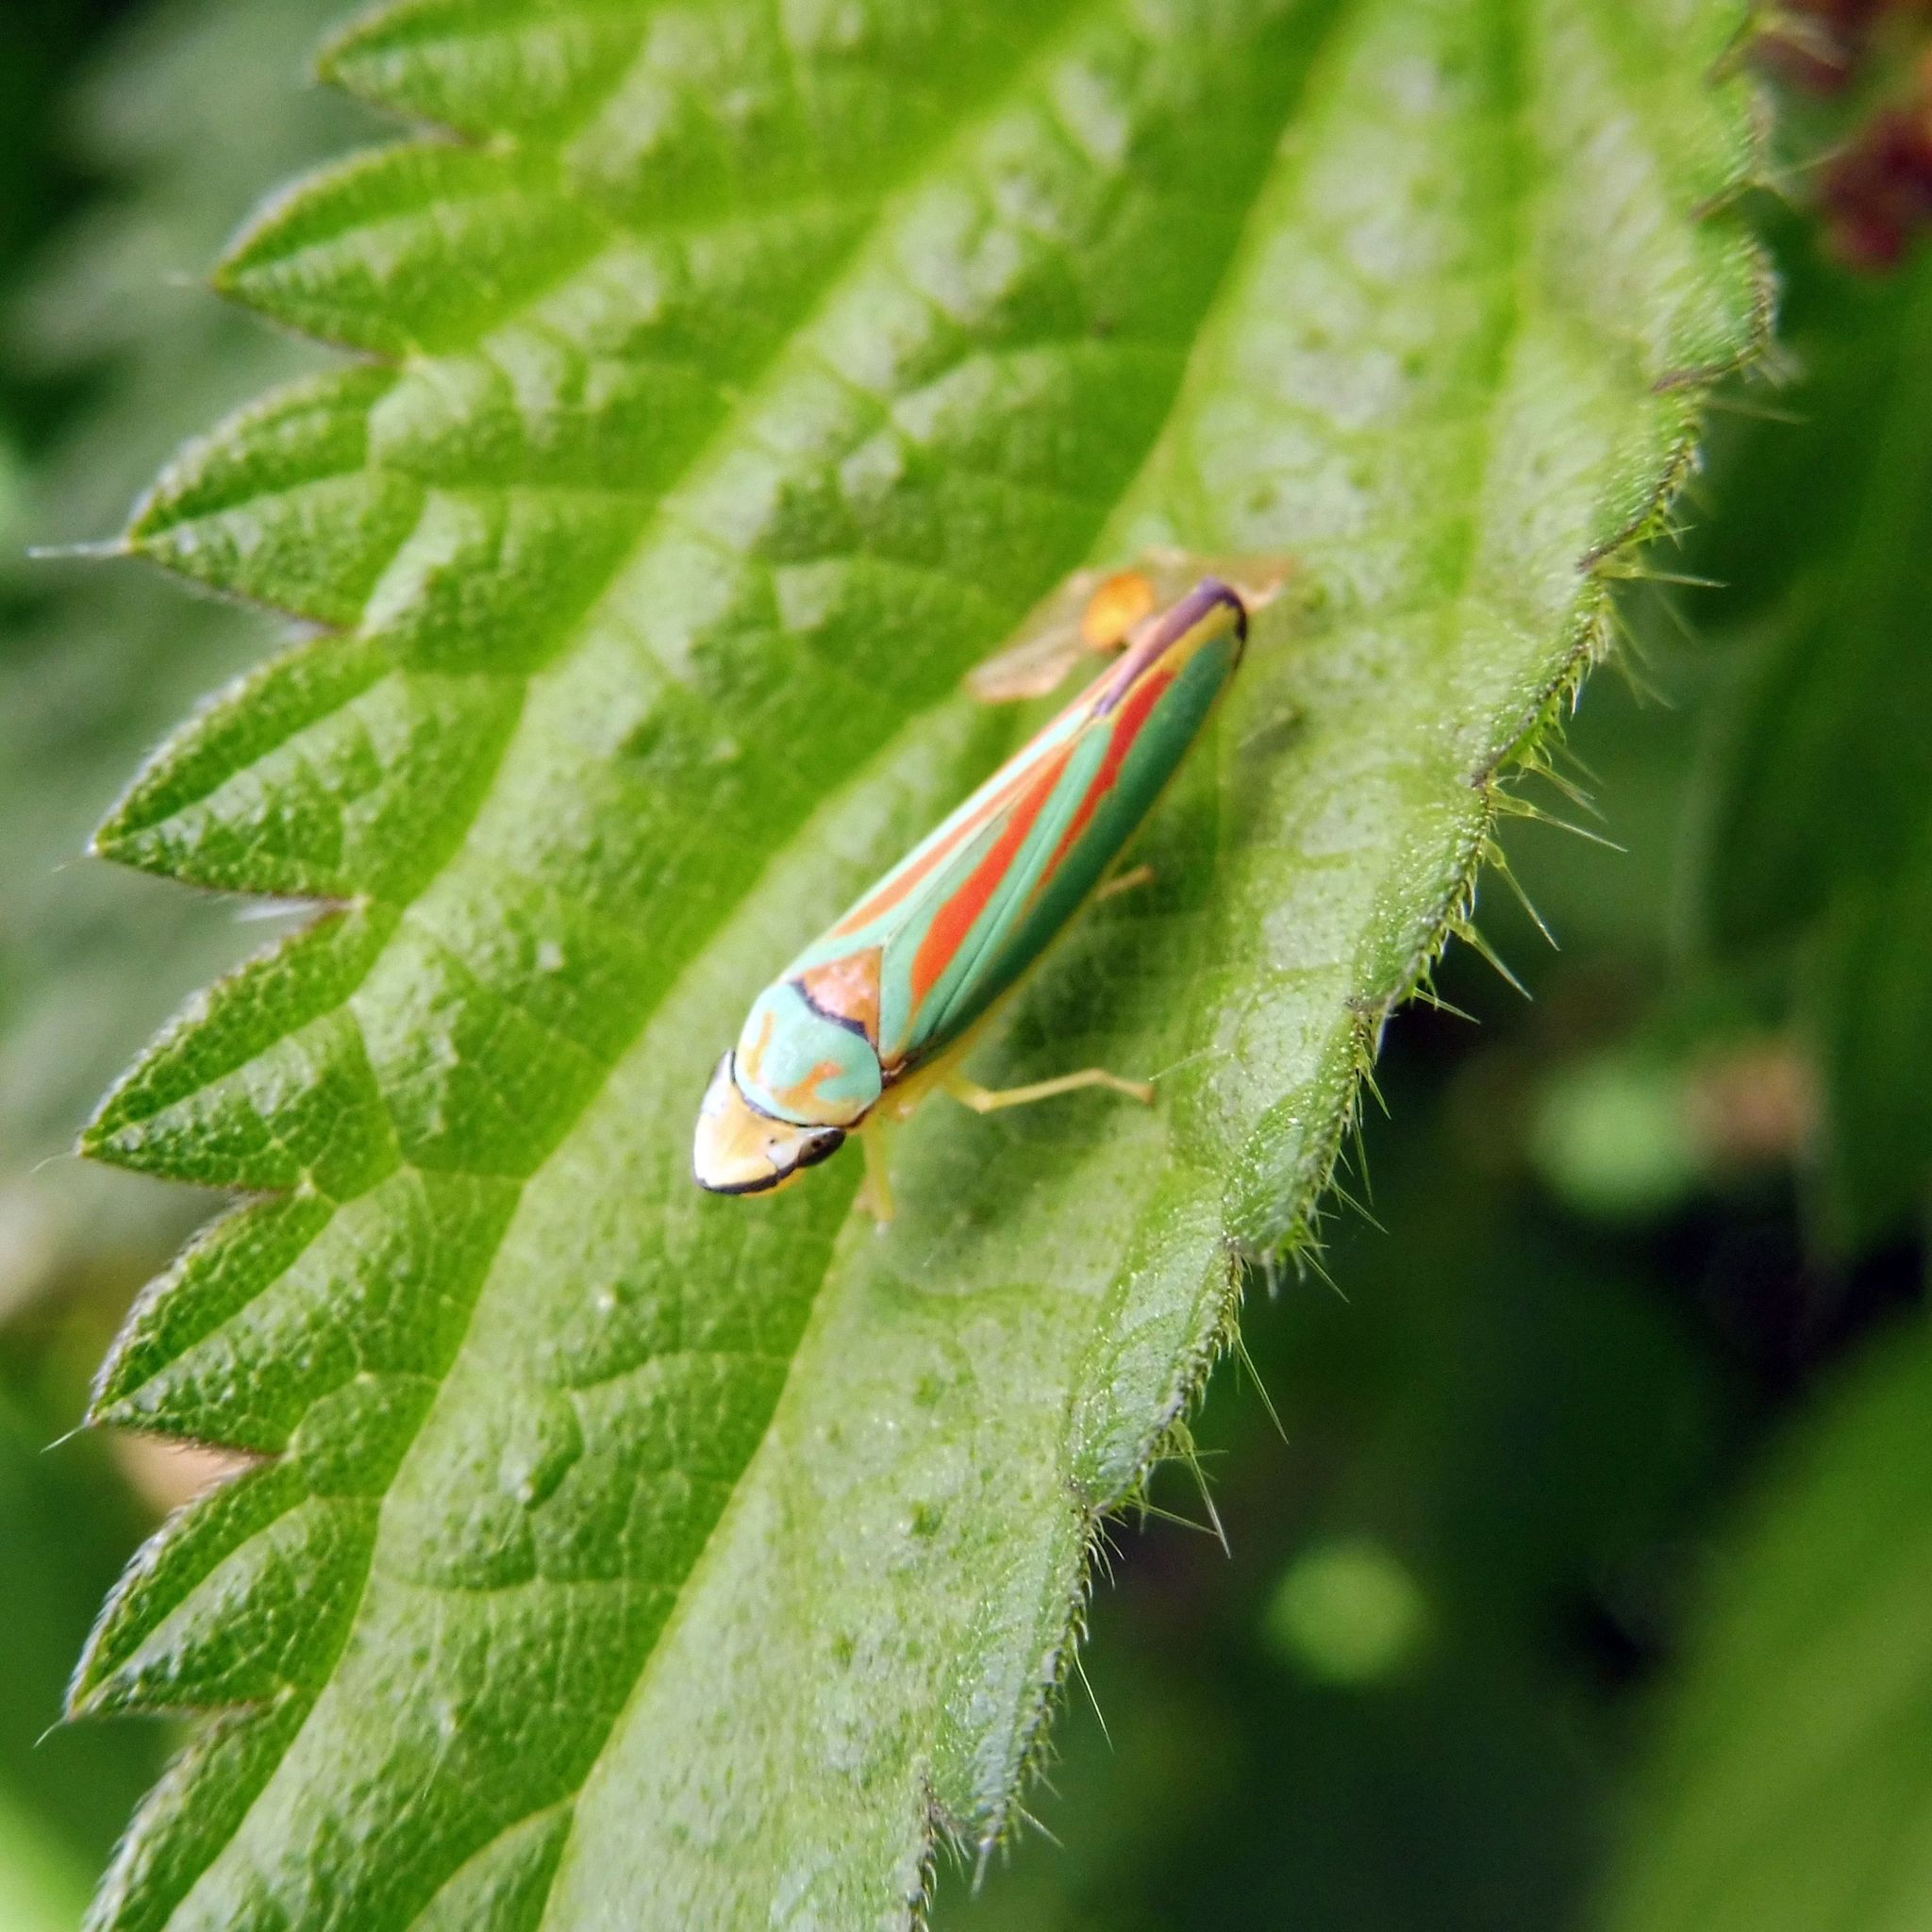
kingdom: Animalia
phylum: Arthropoda
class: Insecta
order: Hemiptera
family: Cicadellidae
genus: Graphocephala
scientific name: Graphocephala fennahi
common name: Rhododendron leafhopper
